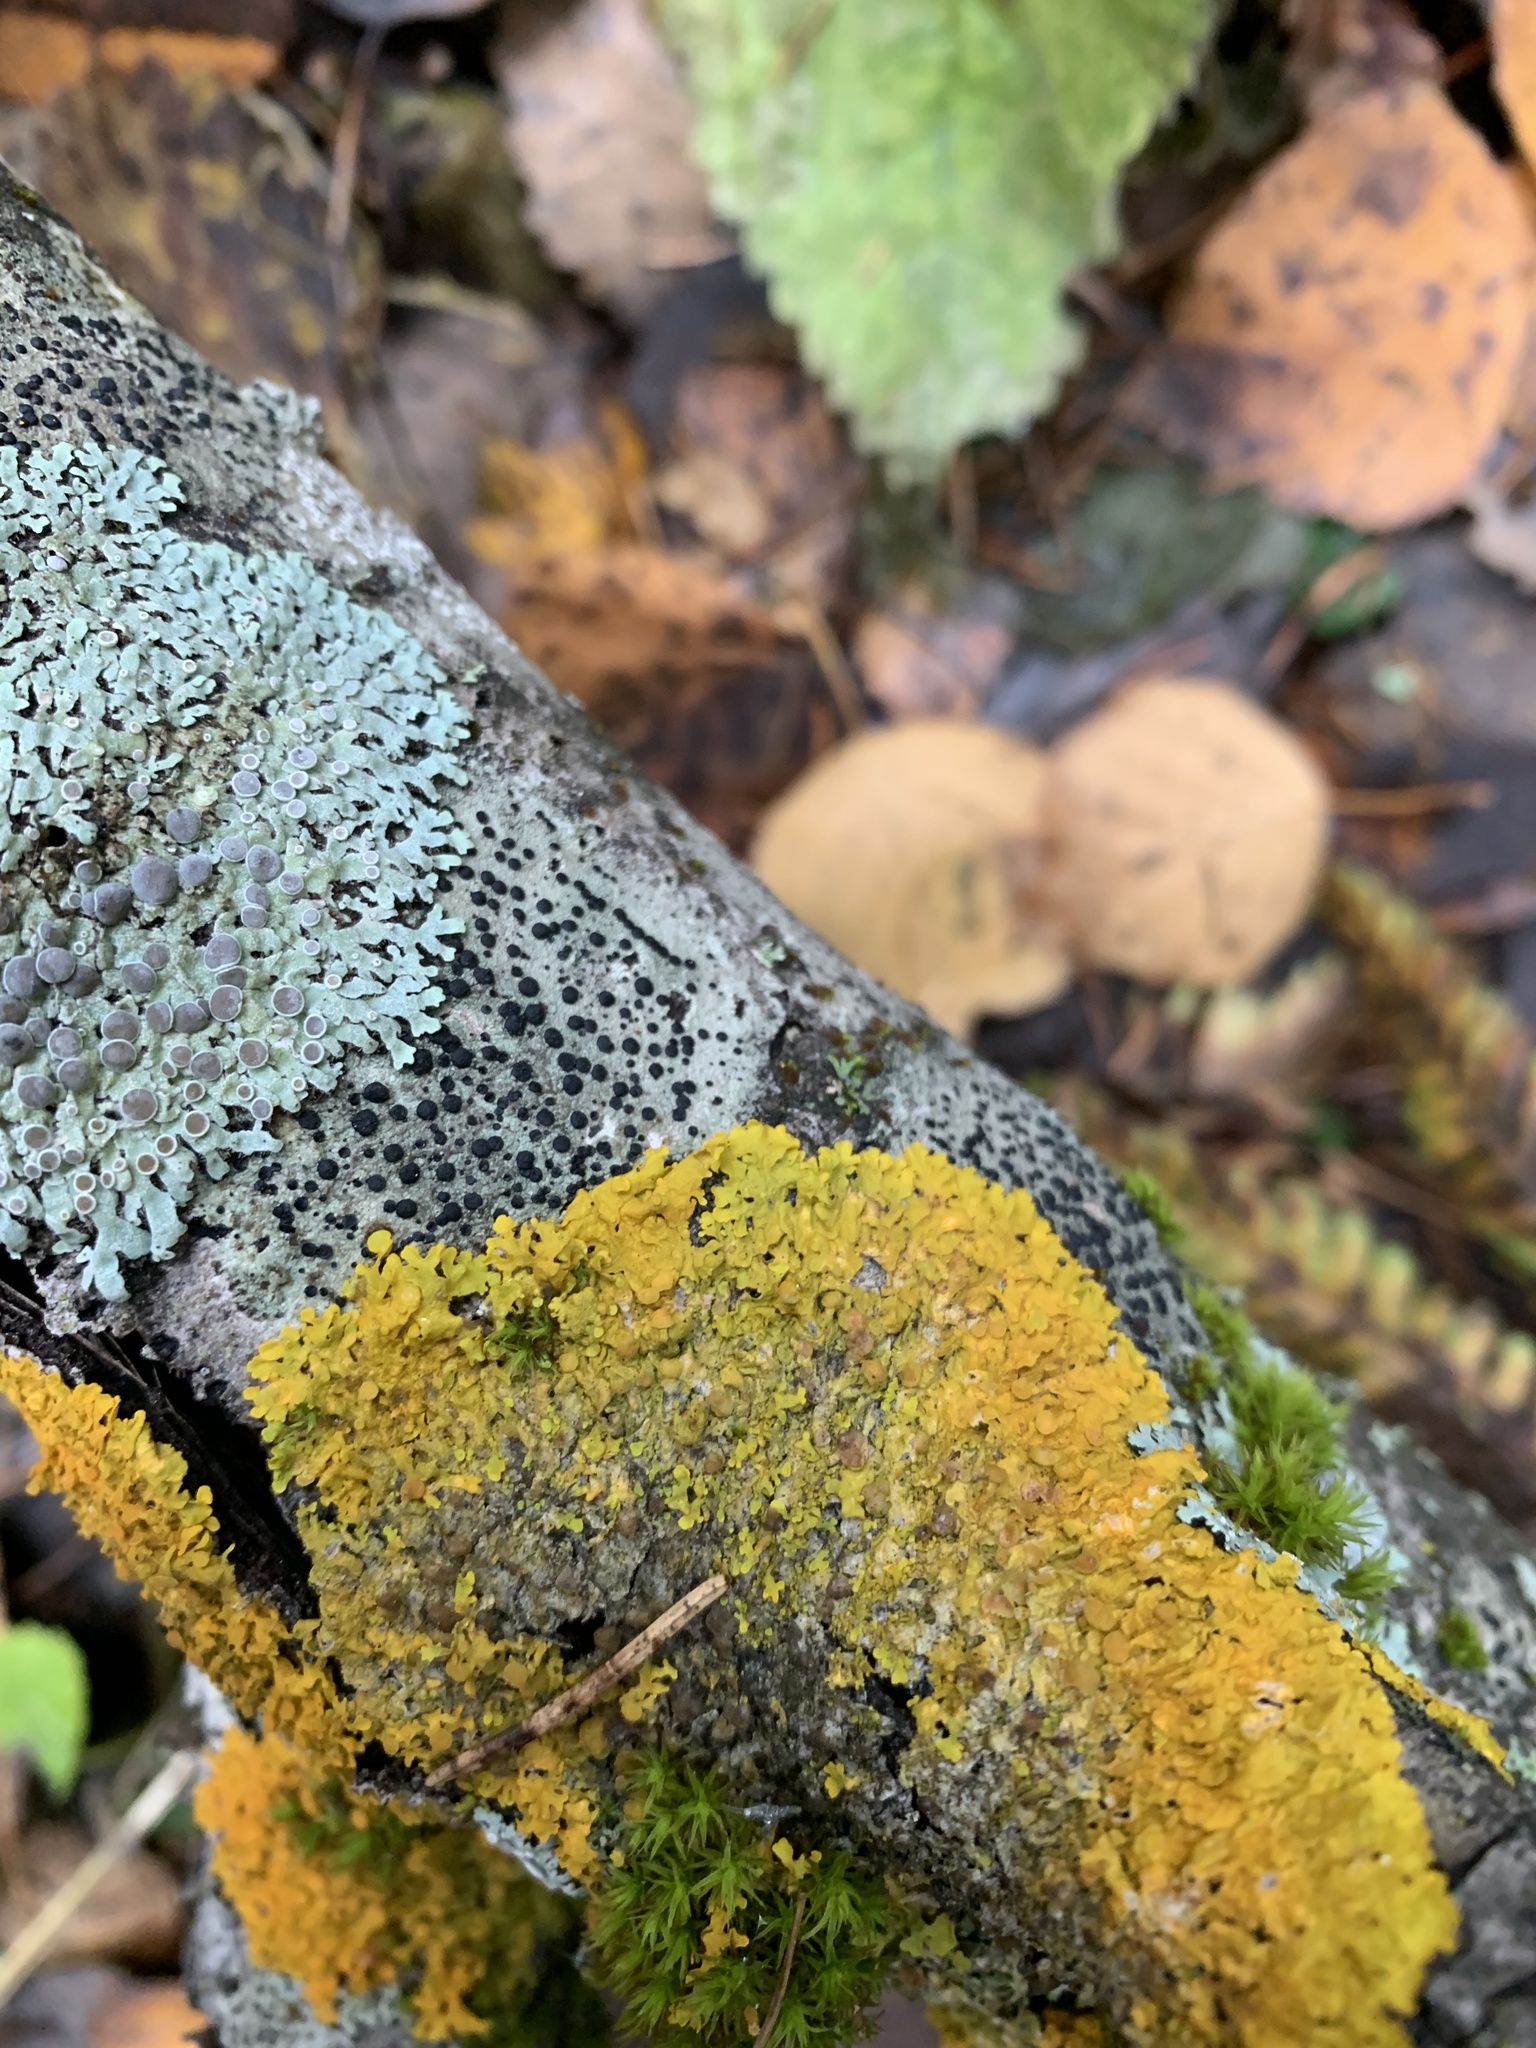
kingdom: Fungi
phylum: Ascomycota
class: Lecanoromycetes
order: Teloschistales
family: Teloschistaceae
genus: Xanthoria
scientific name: Xanthoria parietina
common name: Common orange lichen
